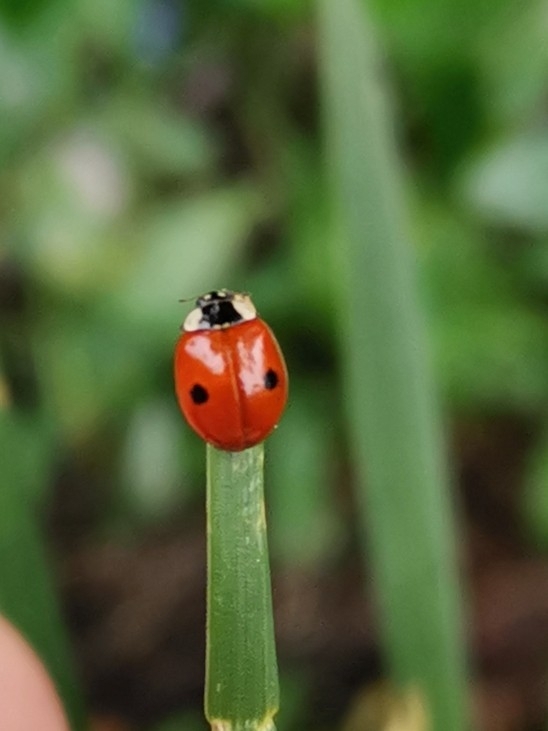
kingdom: Animalia
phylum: Arthropoda
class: Insecta
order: Coleoptera
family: Coccinellidae
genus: Adalia
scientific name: Adalia bipunctata
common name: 2-spot ladybird
